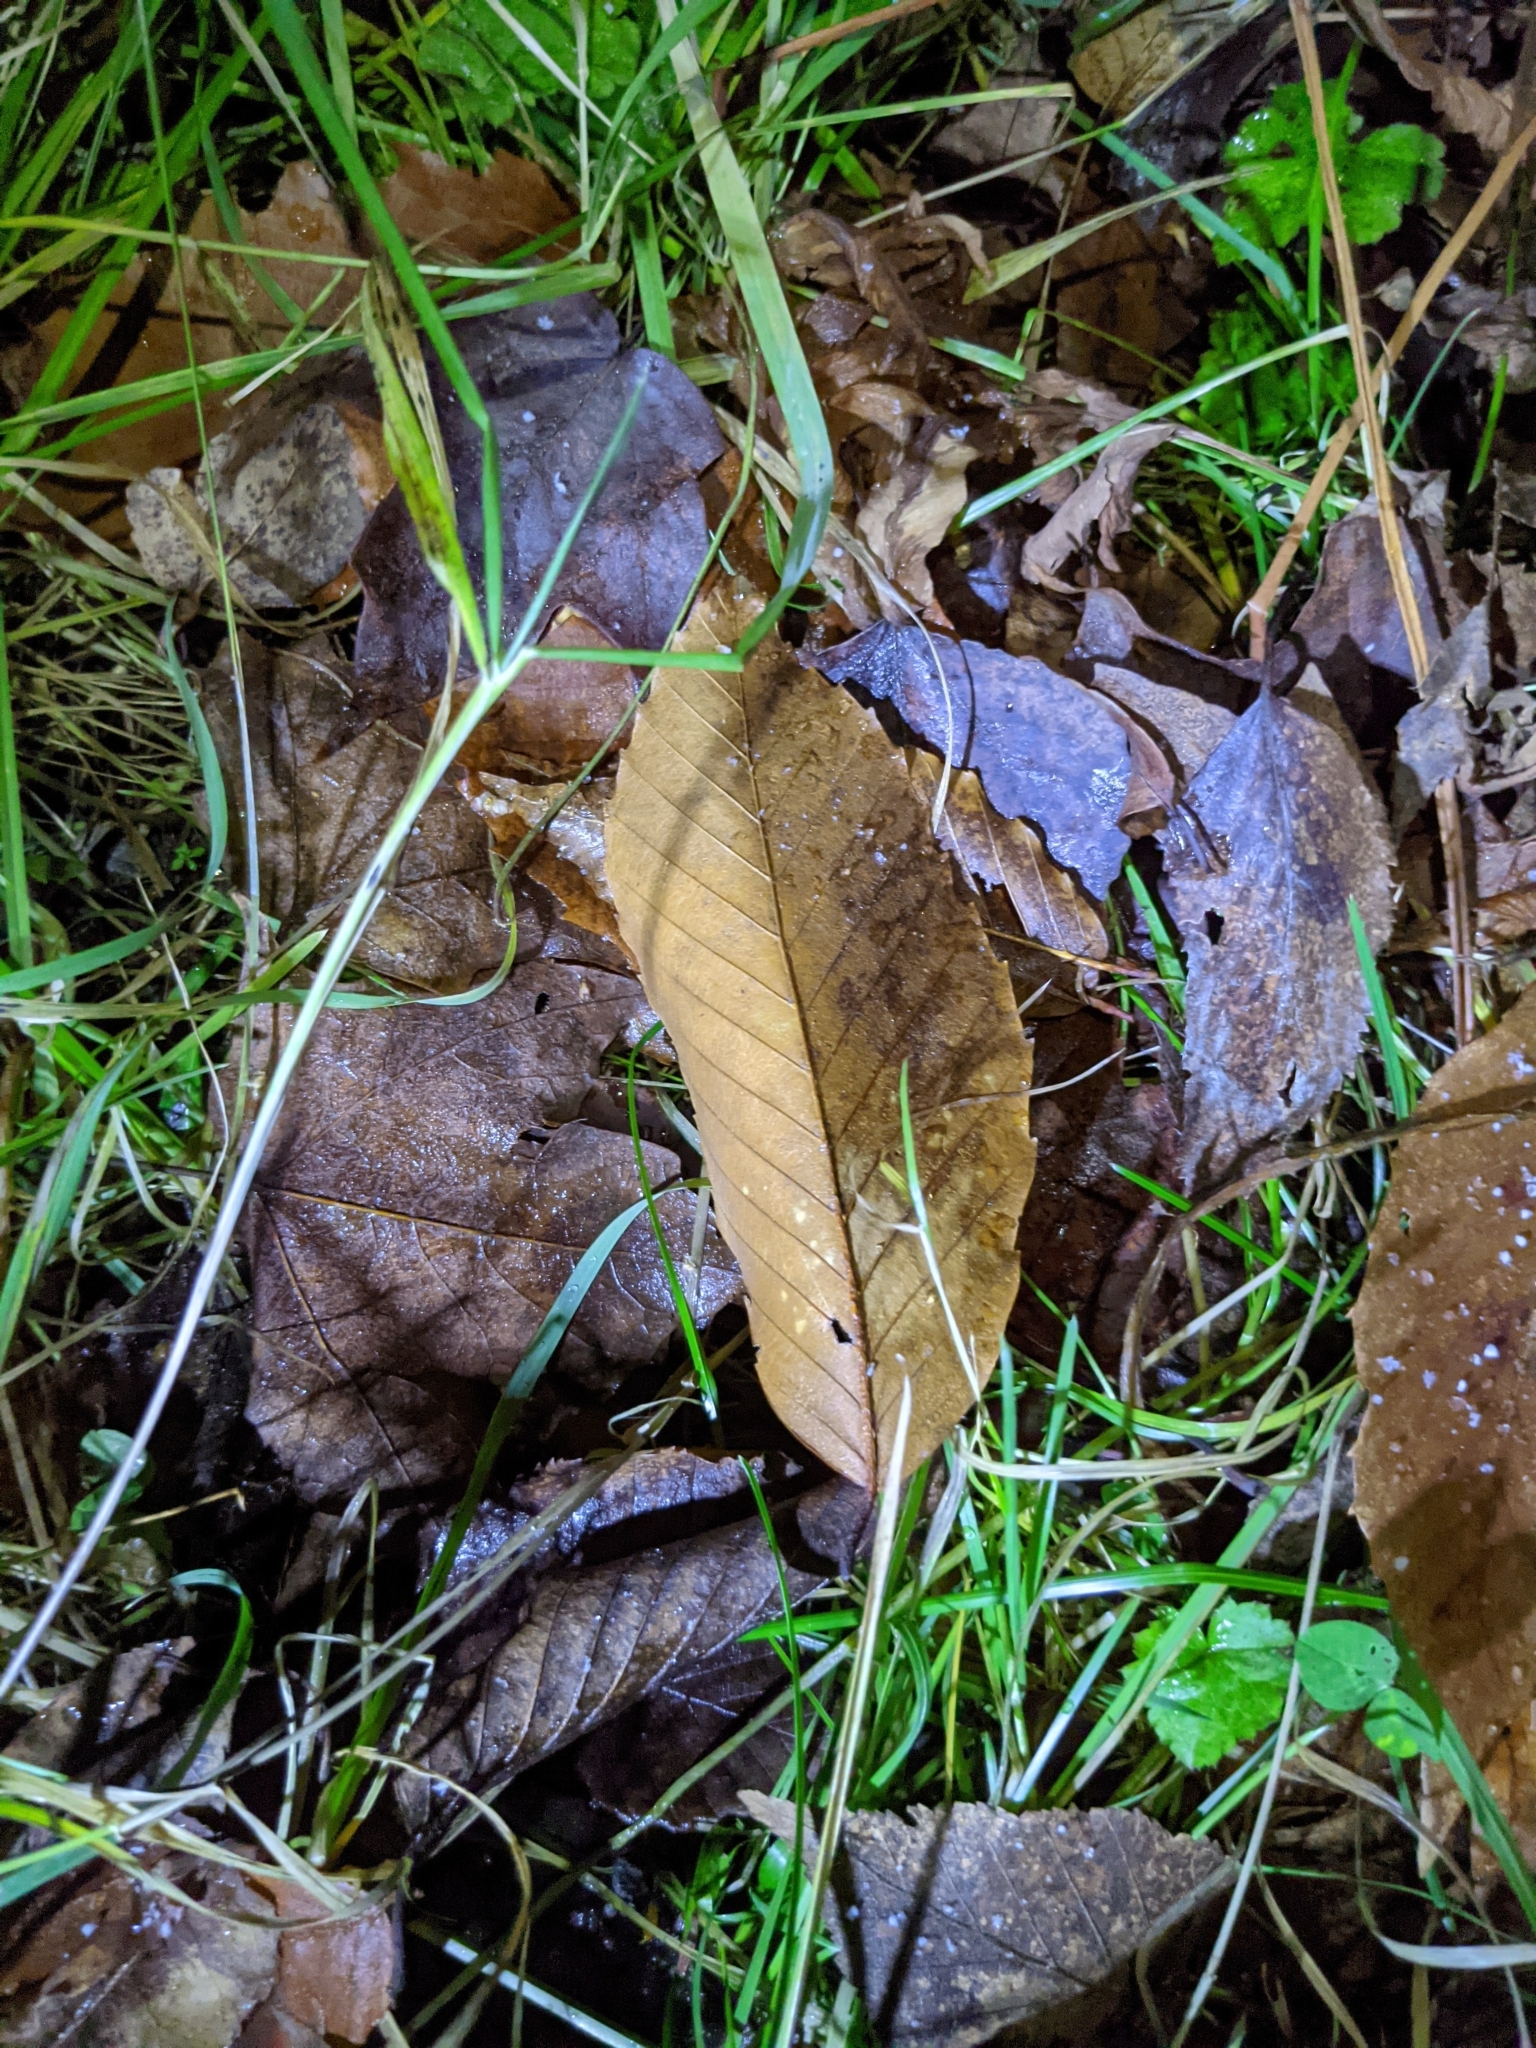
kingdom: Plantae
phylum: Tracheophyta
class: Magnoliopsida
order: Fagales
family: Fagaceae
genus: Fagus
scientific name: Fagus grandifolia
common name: American beech
